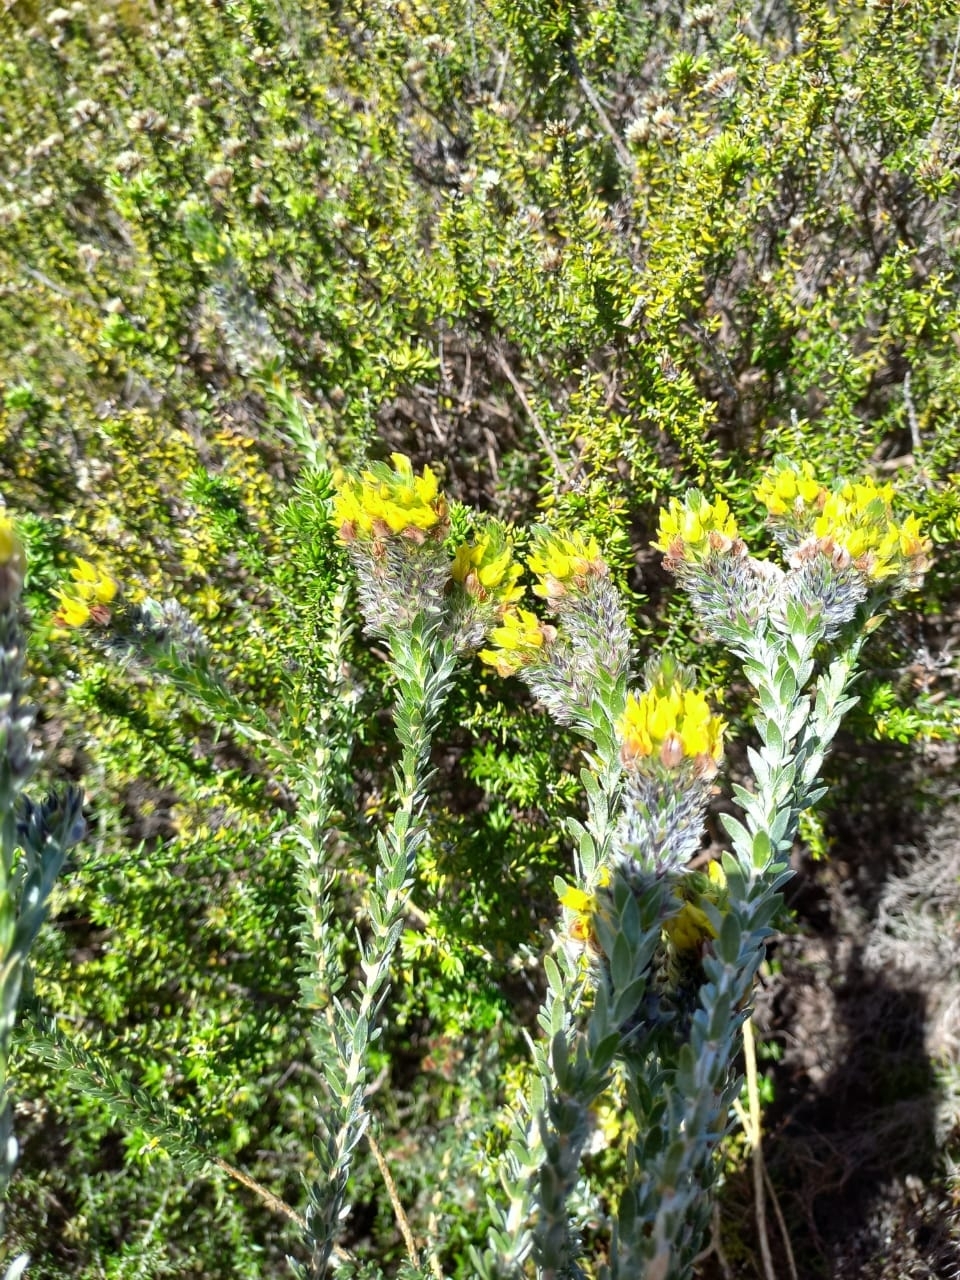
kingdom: Plantae
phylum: Tracheophyta
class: Magnoliopsida
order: Fabales
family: Fabaceae
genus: Aspalathus
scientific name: Aspalathus sericea
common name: Silky pea
